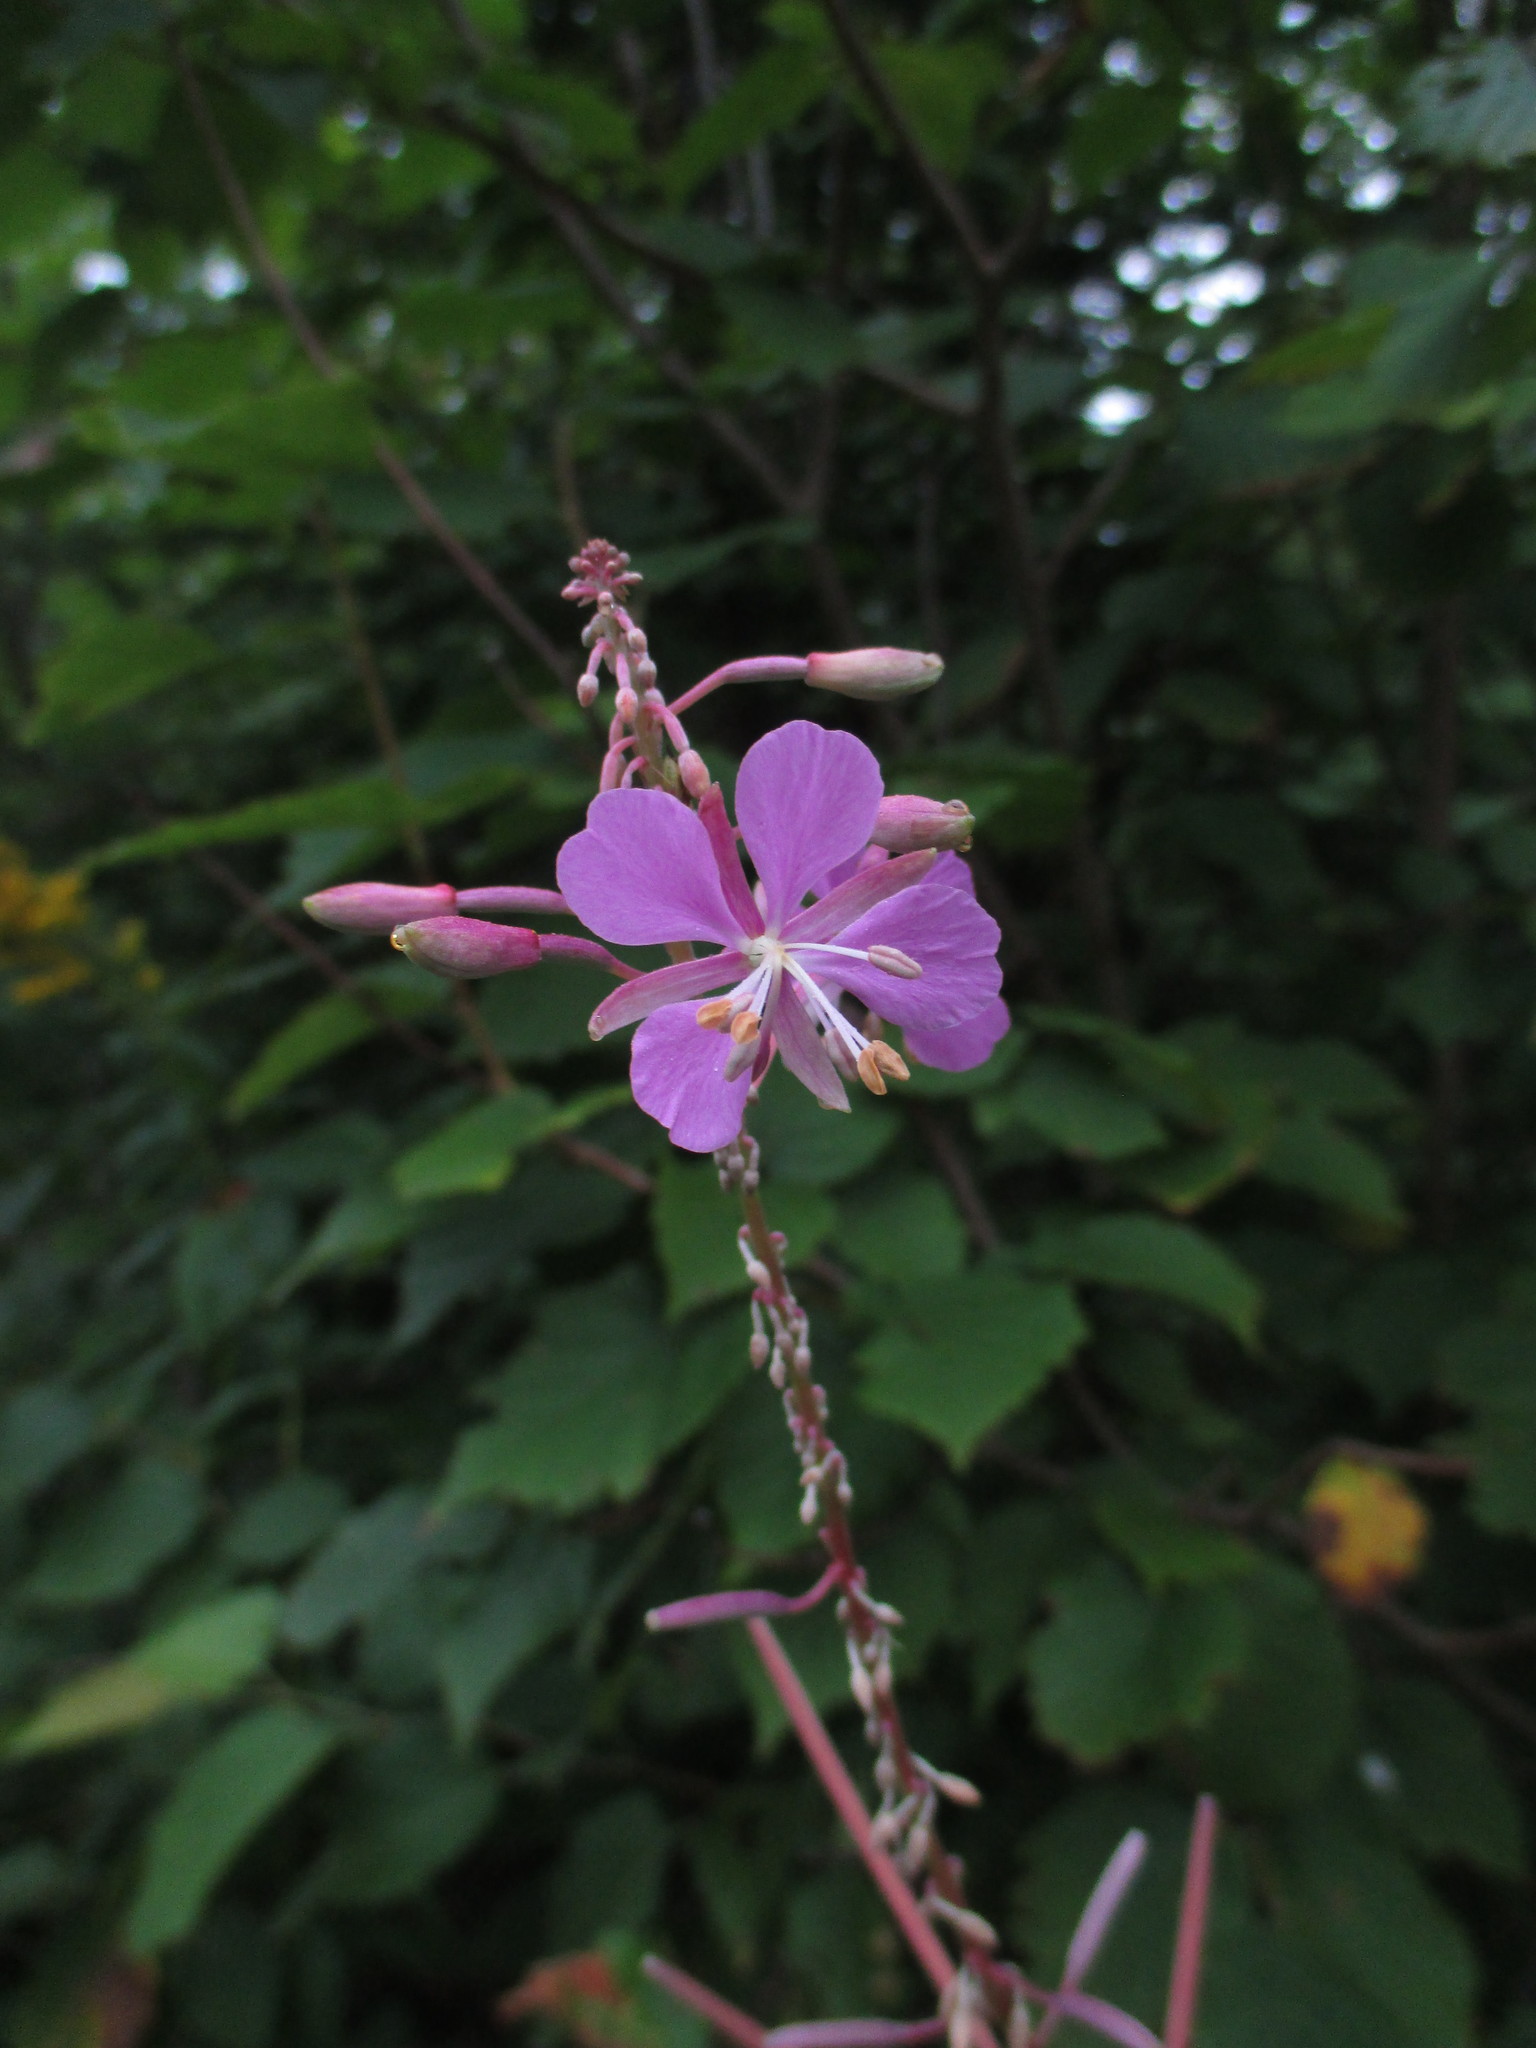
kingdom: Plantae
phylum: Tracheophyta
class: Magnoliopsida
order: Myrtales
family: Onagraceae
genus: Chamaenerion
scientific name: Chamaenerion angustifolium
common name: Fireweed
